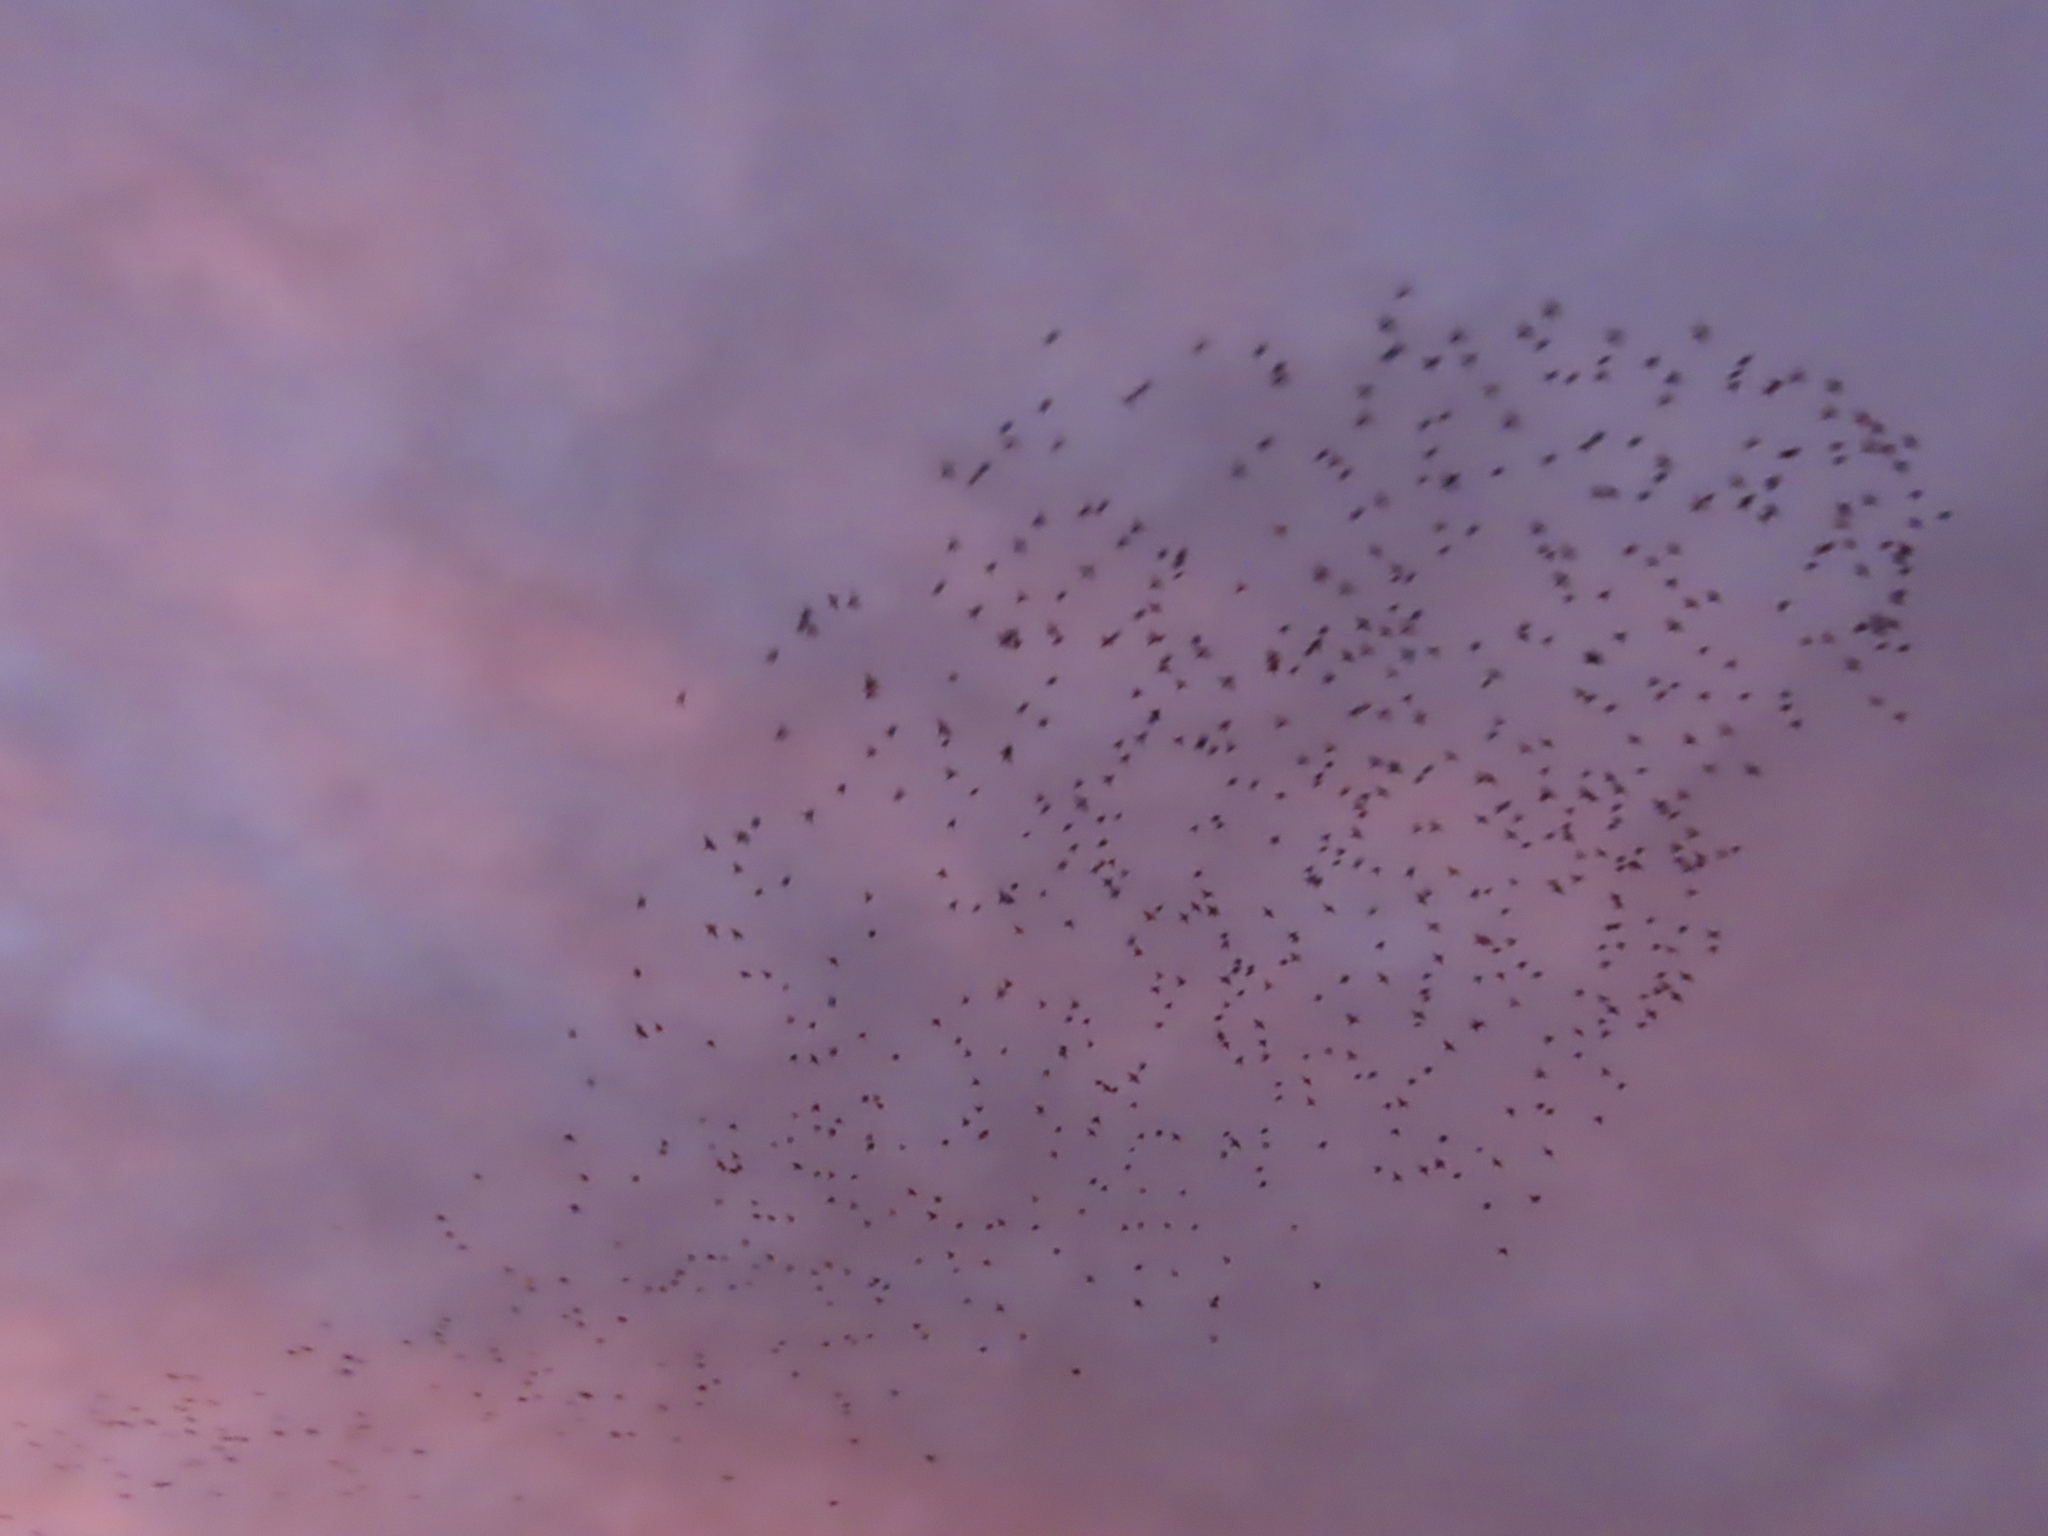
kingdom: Animalia
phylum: Chordata
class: Aves
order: Passeriformes
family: Sturnidae
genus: Sturnus
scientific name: Sturnus vulgaris
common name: Common starling
